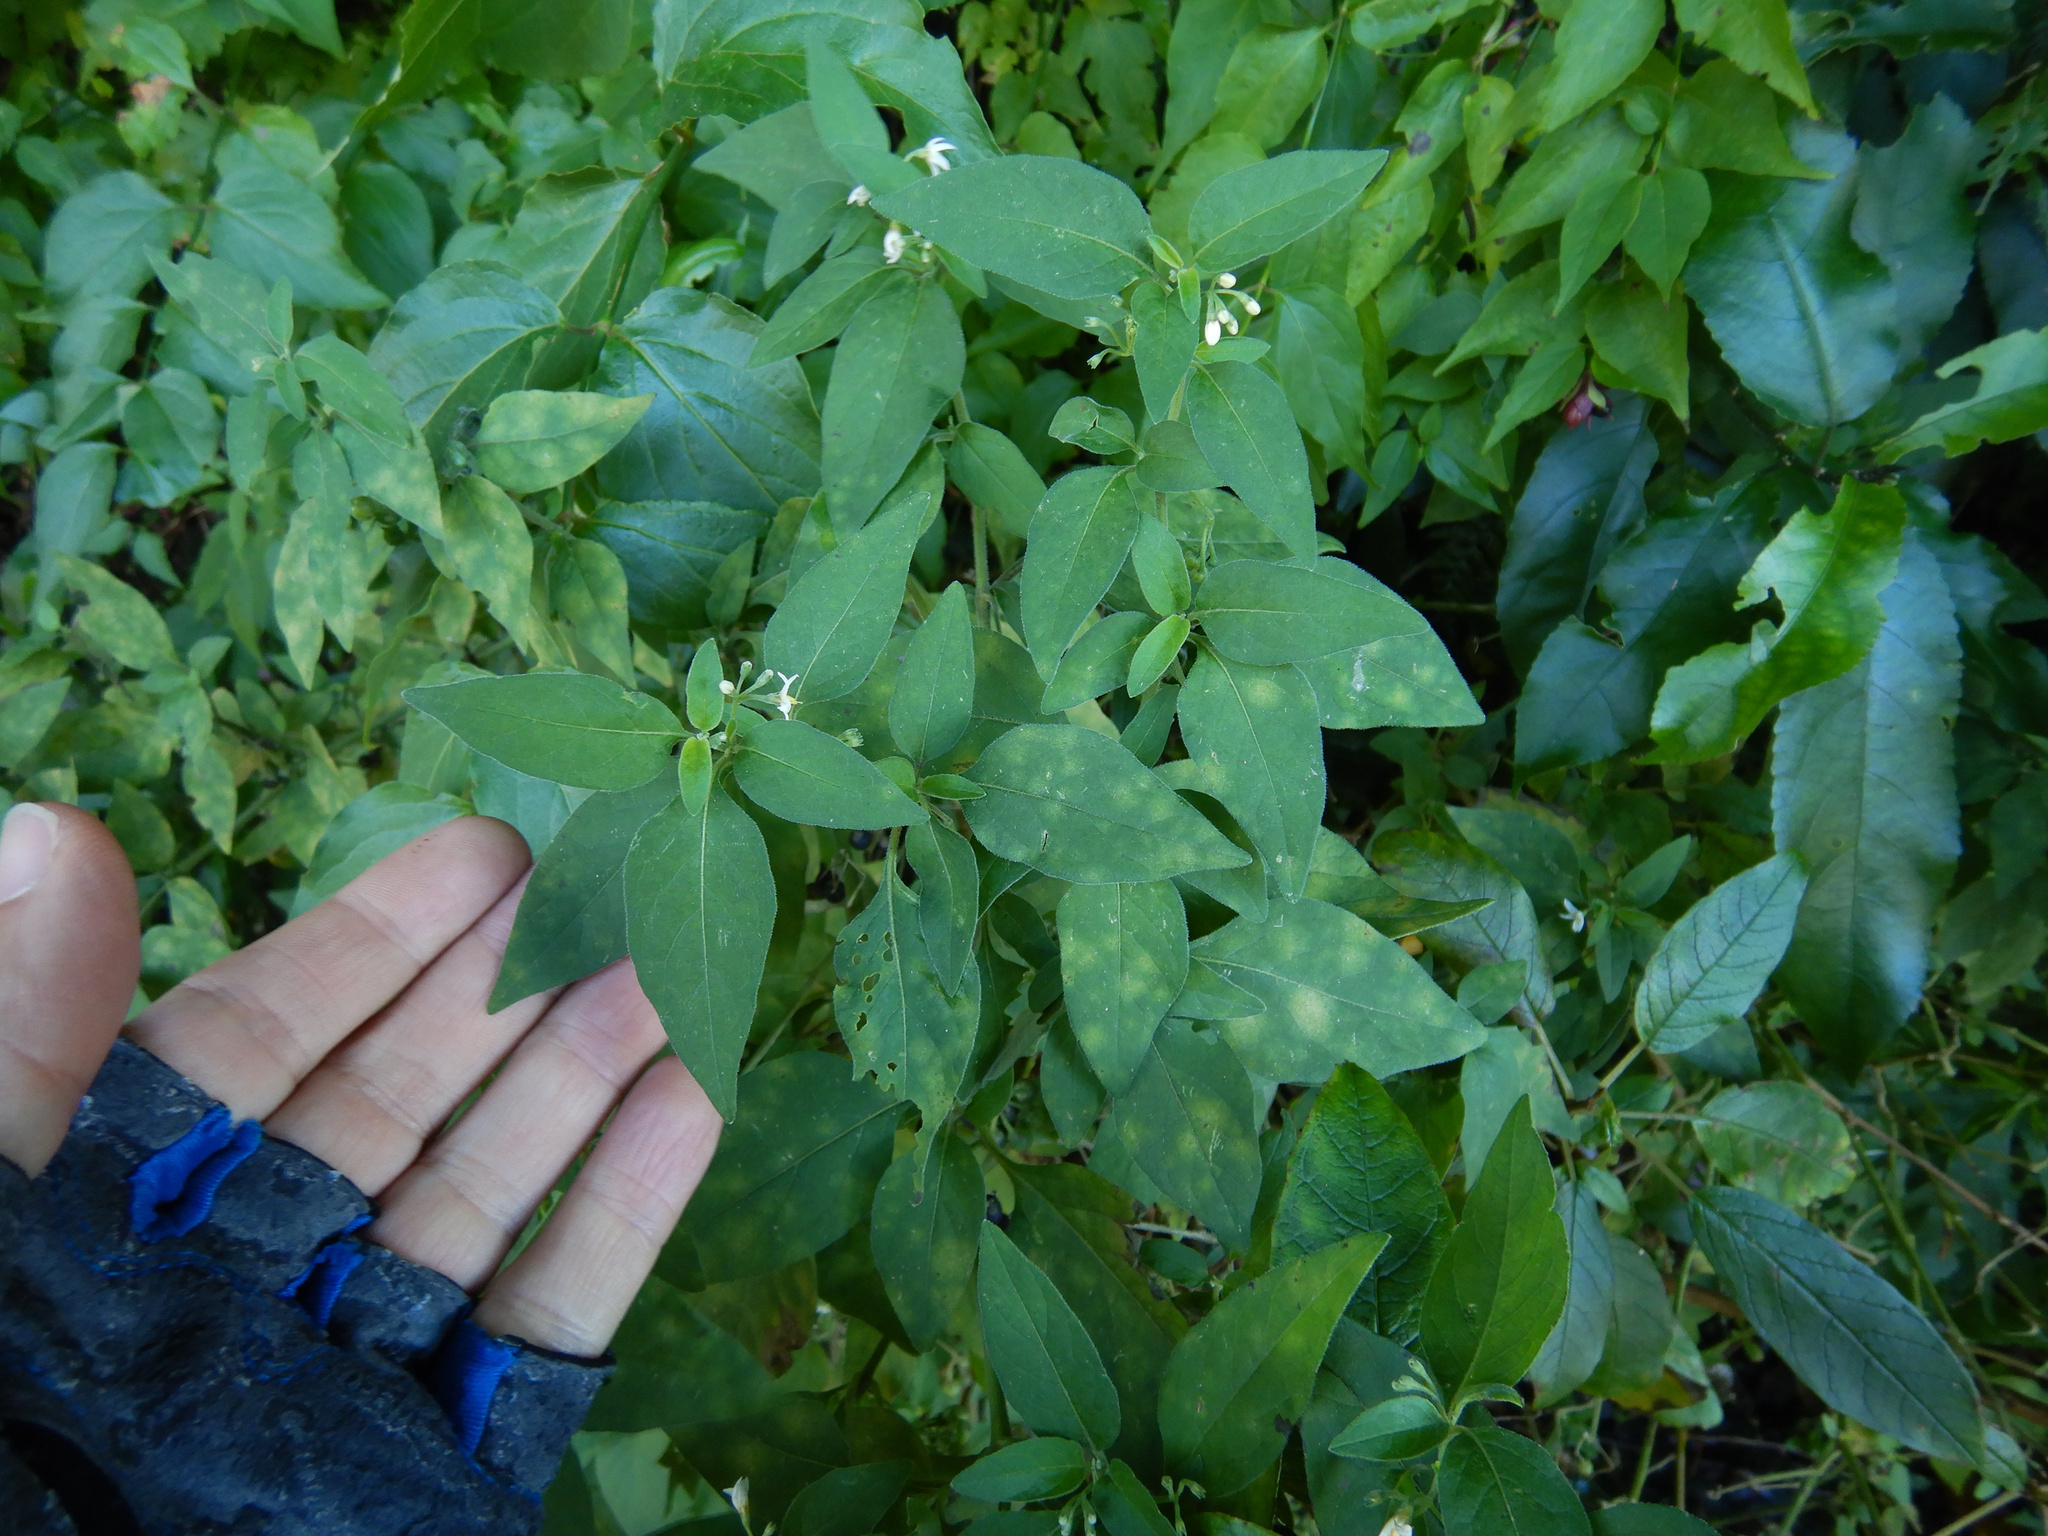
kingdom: Plantae
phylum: Tracheophyta
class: Magnoliopsida
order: Solanales
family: Solanaceae
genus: Solanum
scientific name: Solanum chenopodioides
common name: Tall nightshade
